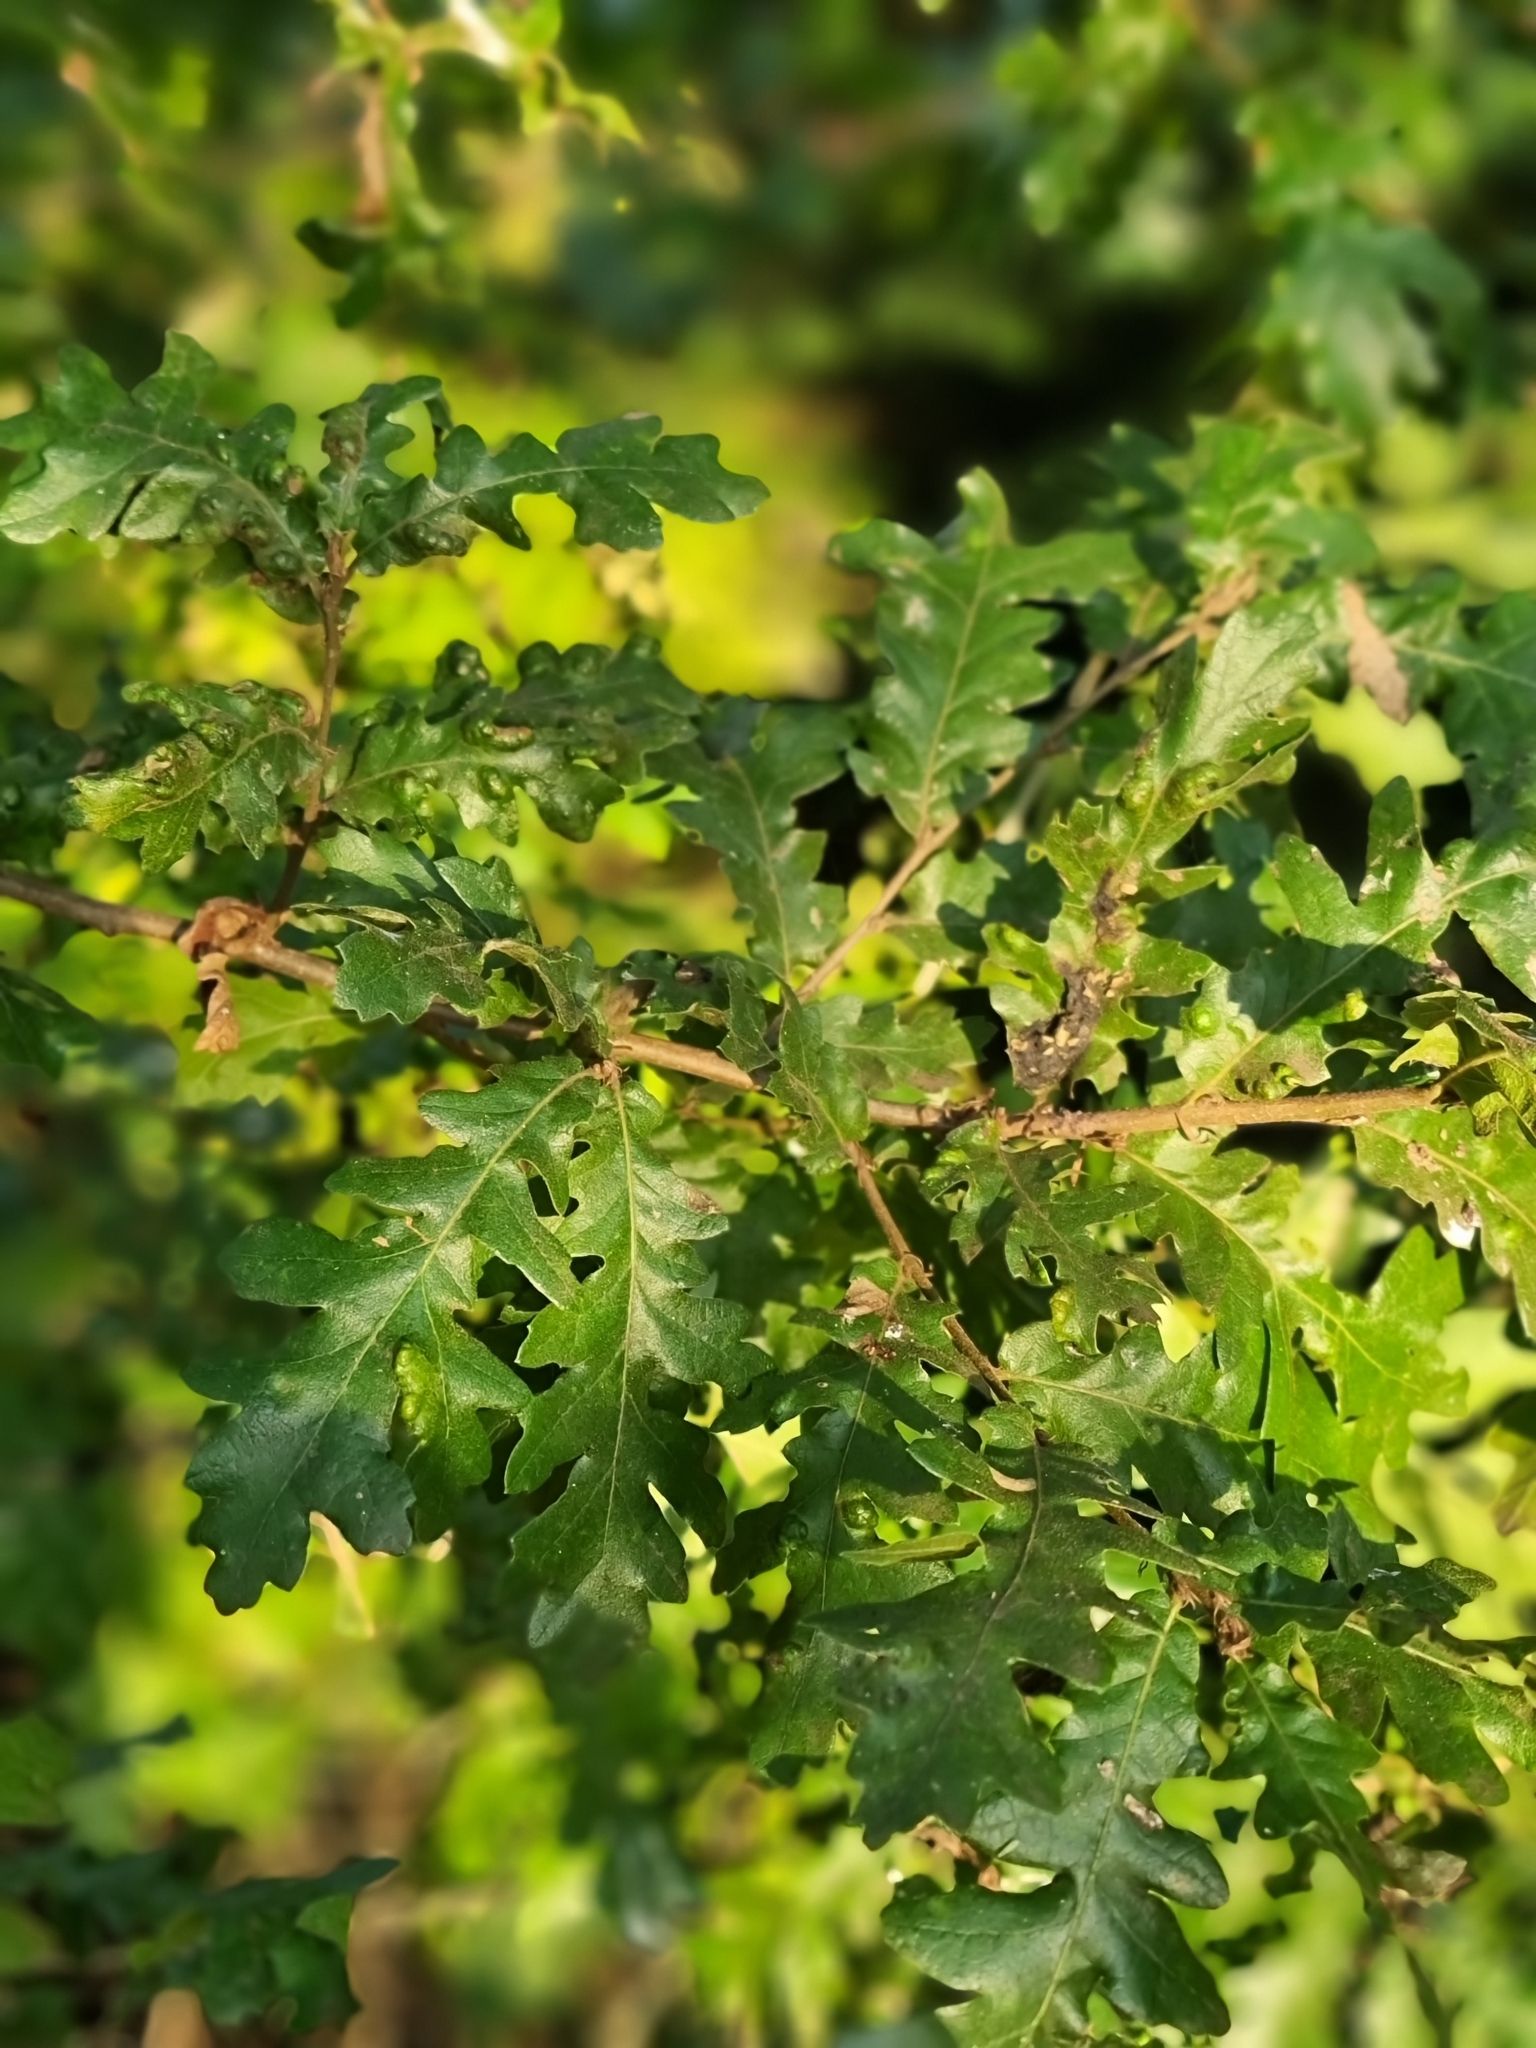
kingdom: Plantae
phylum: Tracheophyta
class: Magnoliopsida
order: Fagales
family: Fagaceae
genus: Quercus
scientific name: Quercus cerris
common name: Turkey oak
